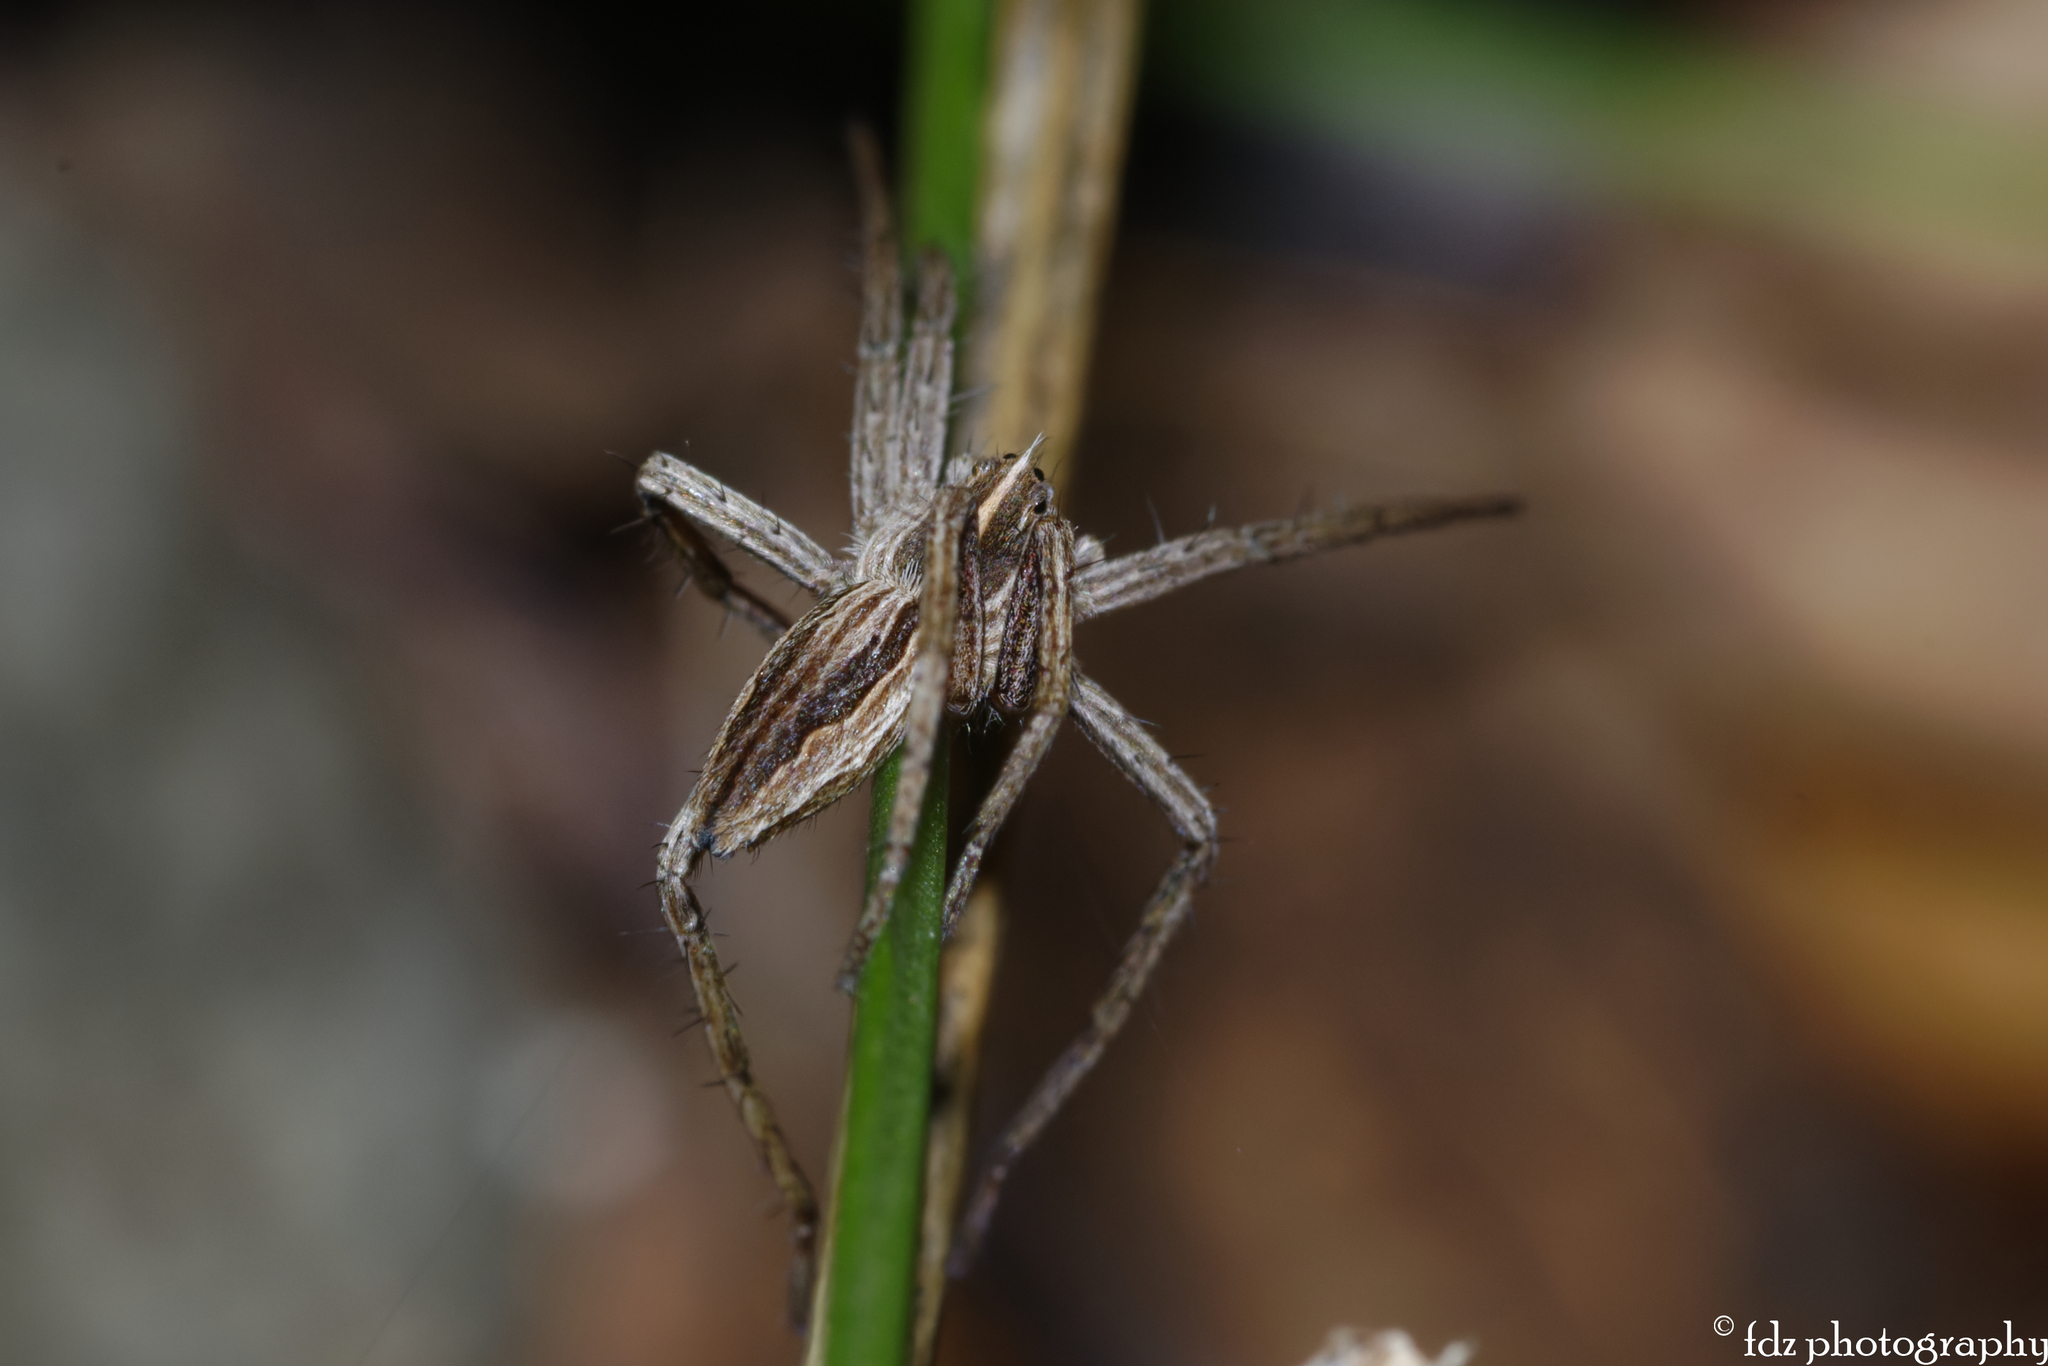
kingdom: Animalia
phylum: Arthropoda
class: Arachnida
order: Araneae
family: Pisauridae
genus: Pisaura
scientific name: Pisaura mirabilis
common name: Tent spider
